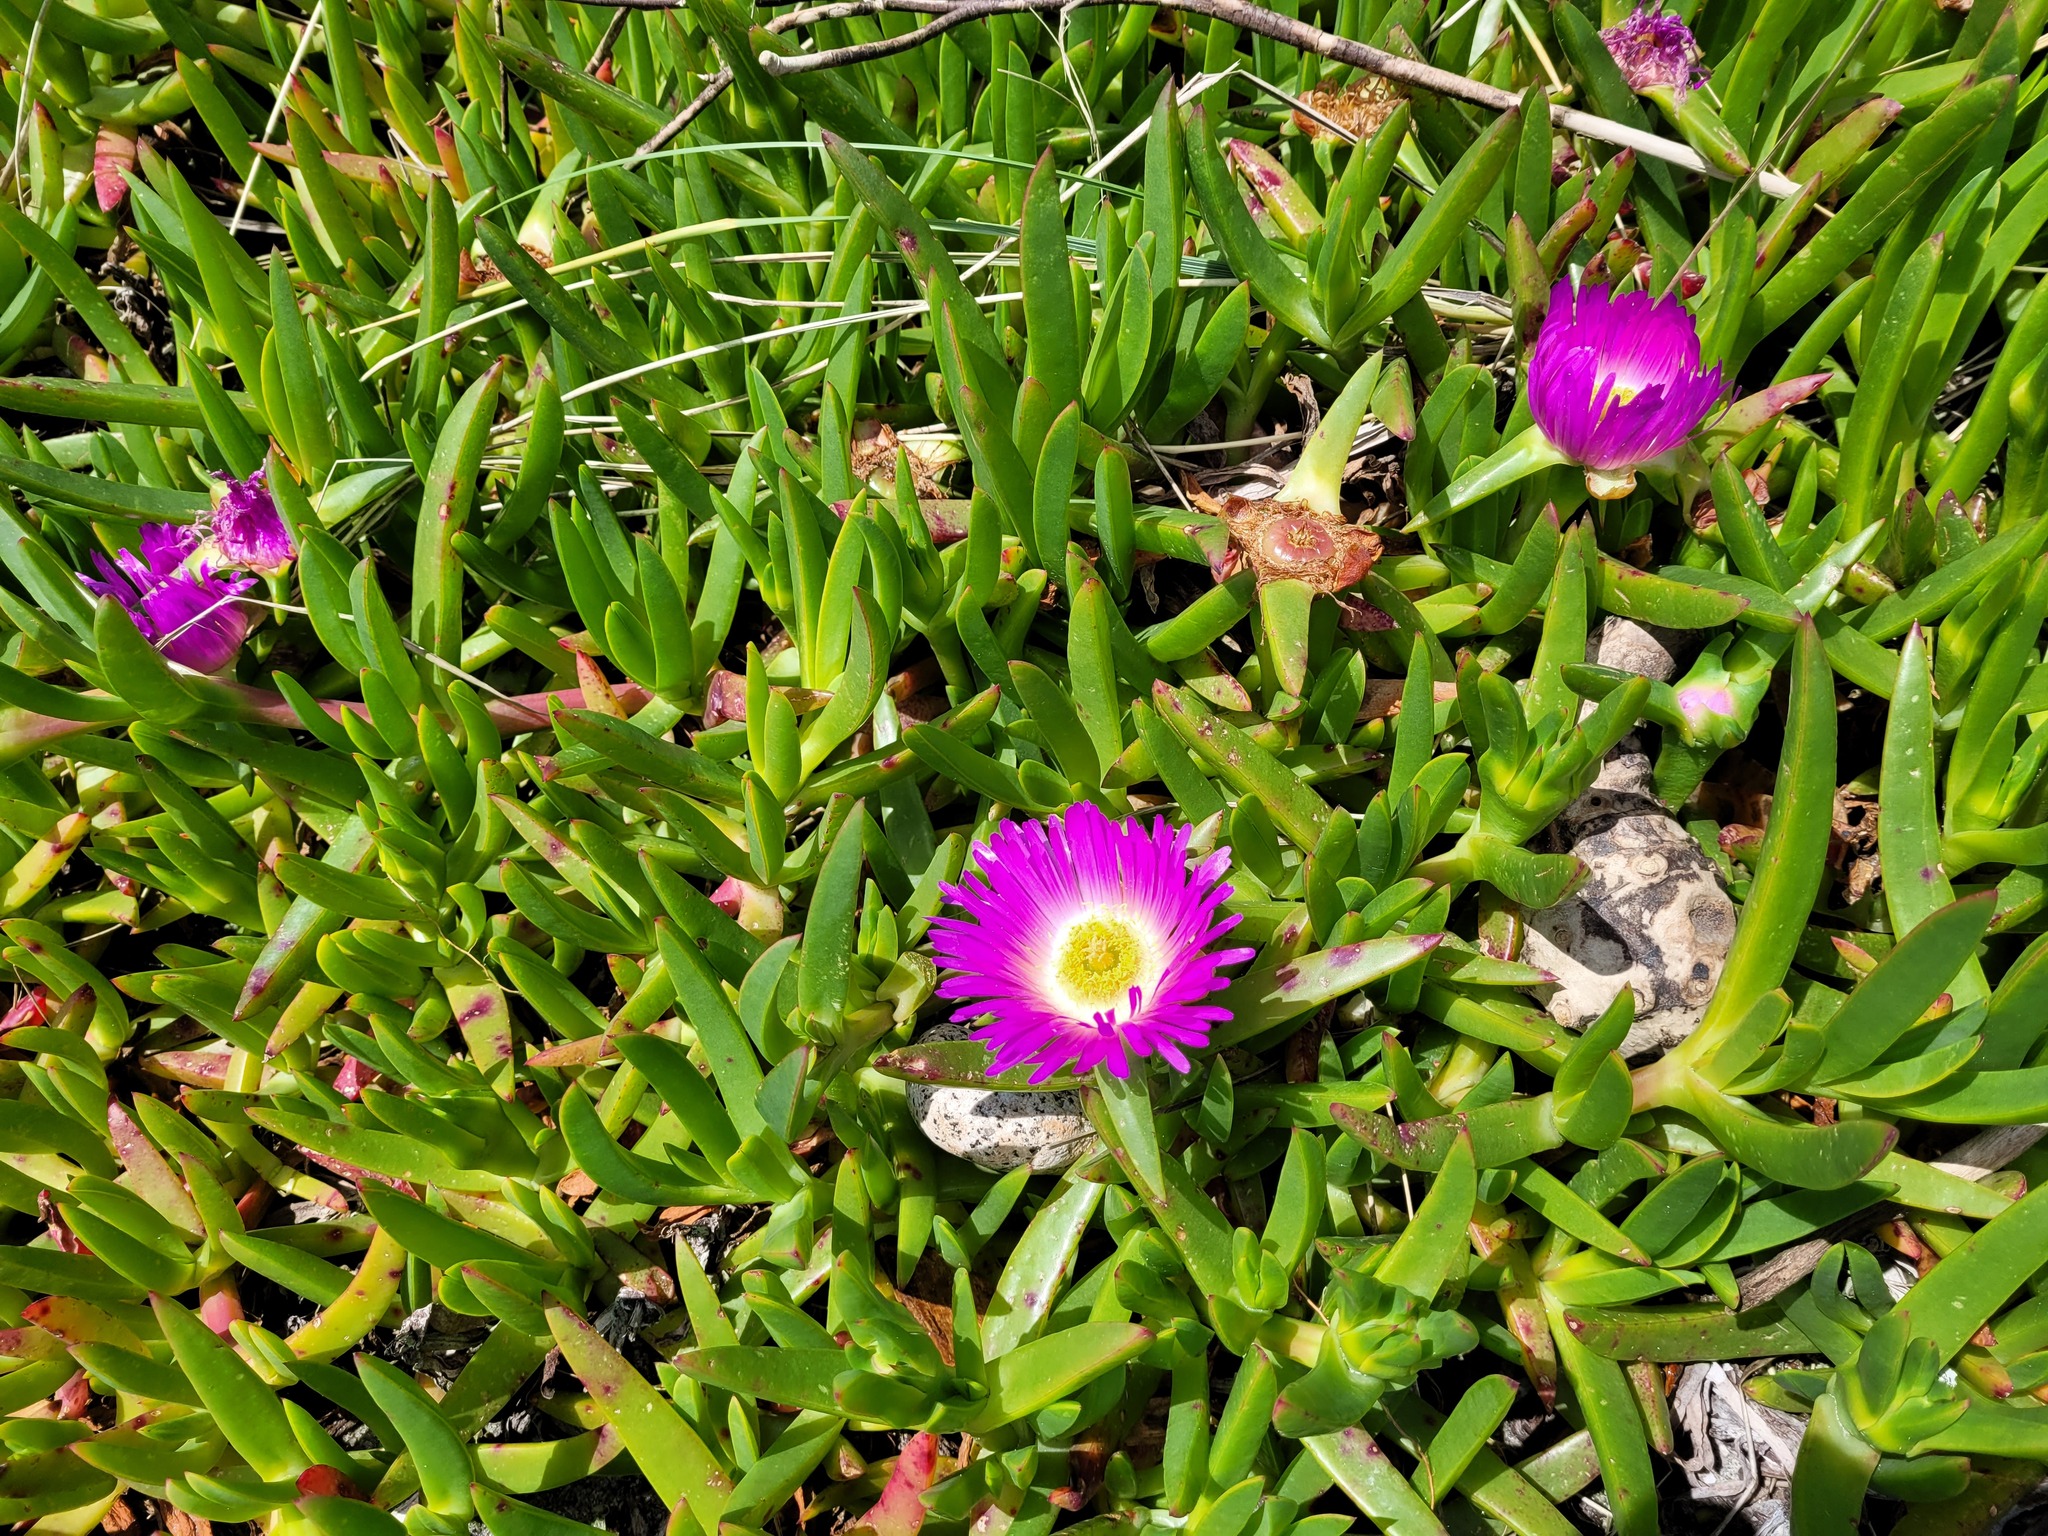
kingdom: Plantae
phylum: Tracheophyta
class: Magnoliopsida
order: Caryophyllales
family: Aizoaceae
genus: Carpobrotus
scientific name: Carpobrotus chilensis
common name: Sea fig
